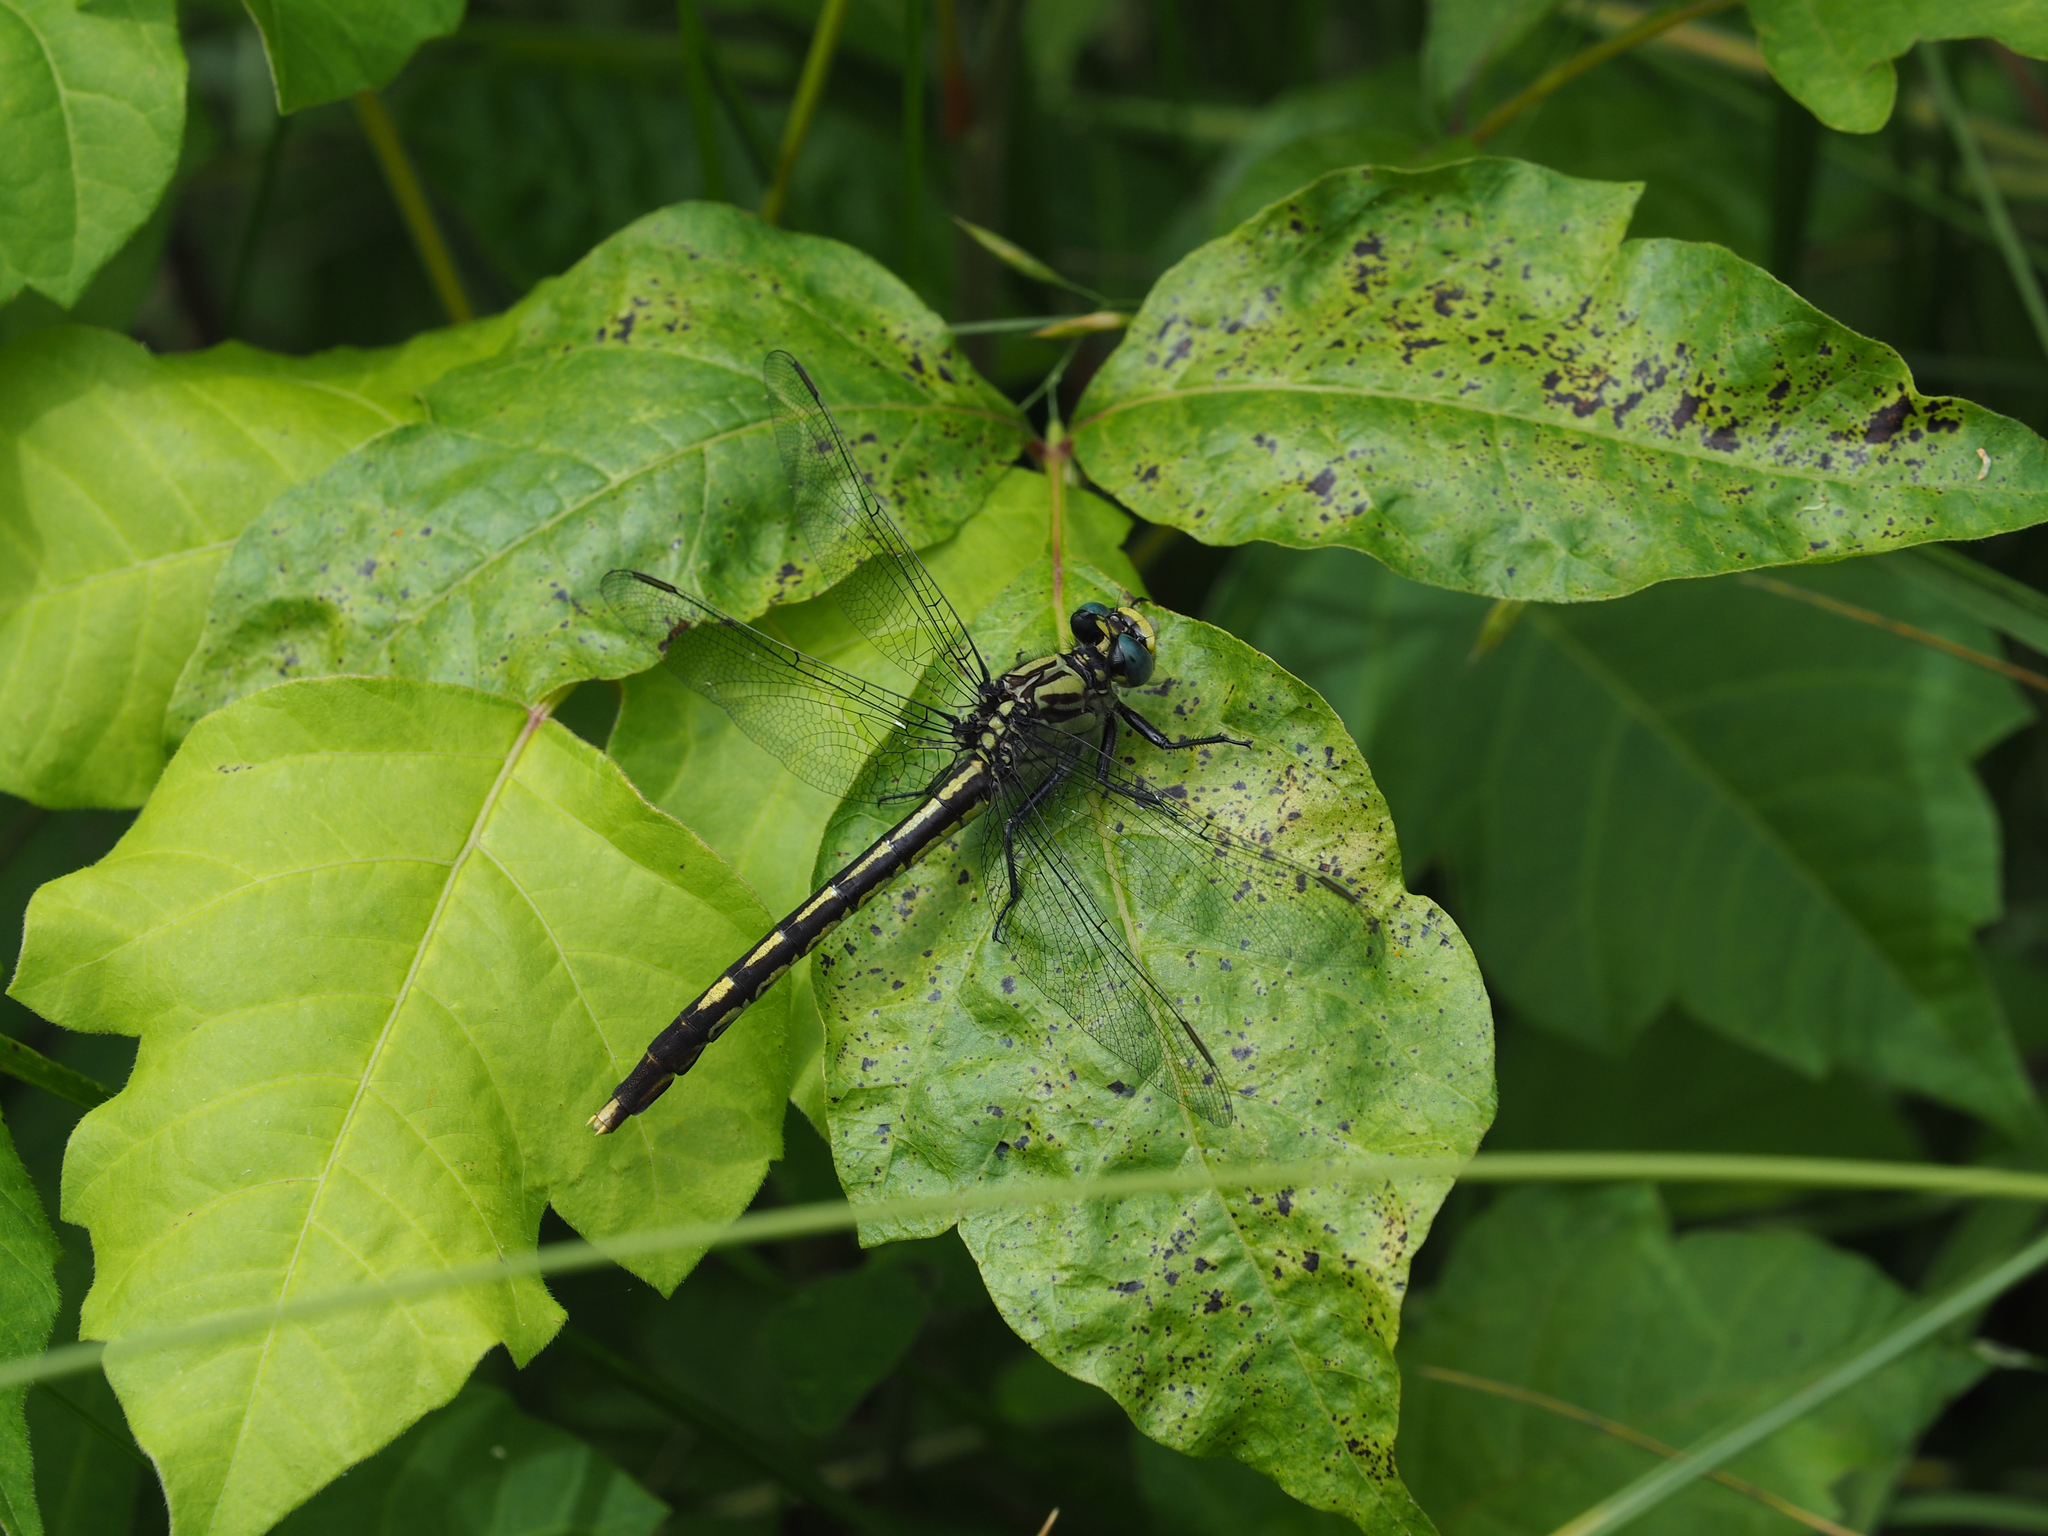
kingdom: Animalia
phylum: Arthropoda
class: Insecta
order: Odonata
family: Gomphidae
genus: Arigomphus
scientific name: Arigomphus villosipes
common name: Unicorn clubtail
